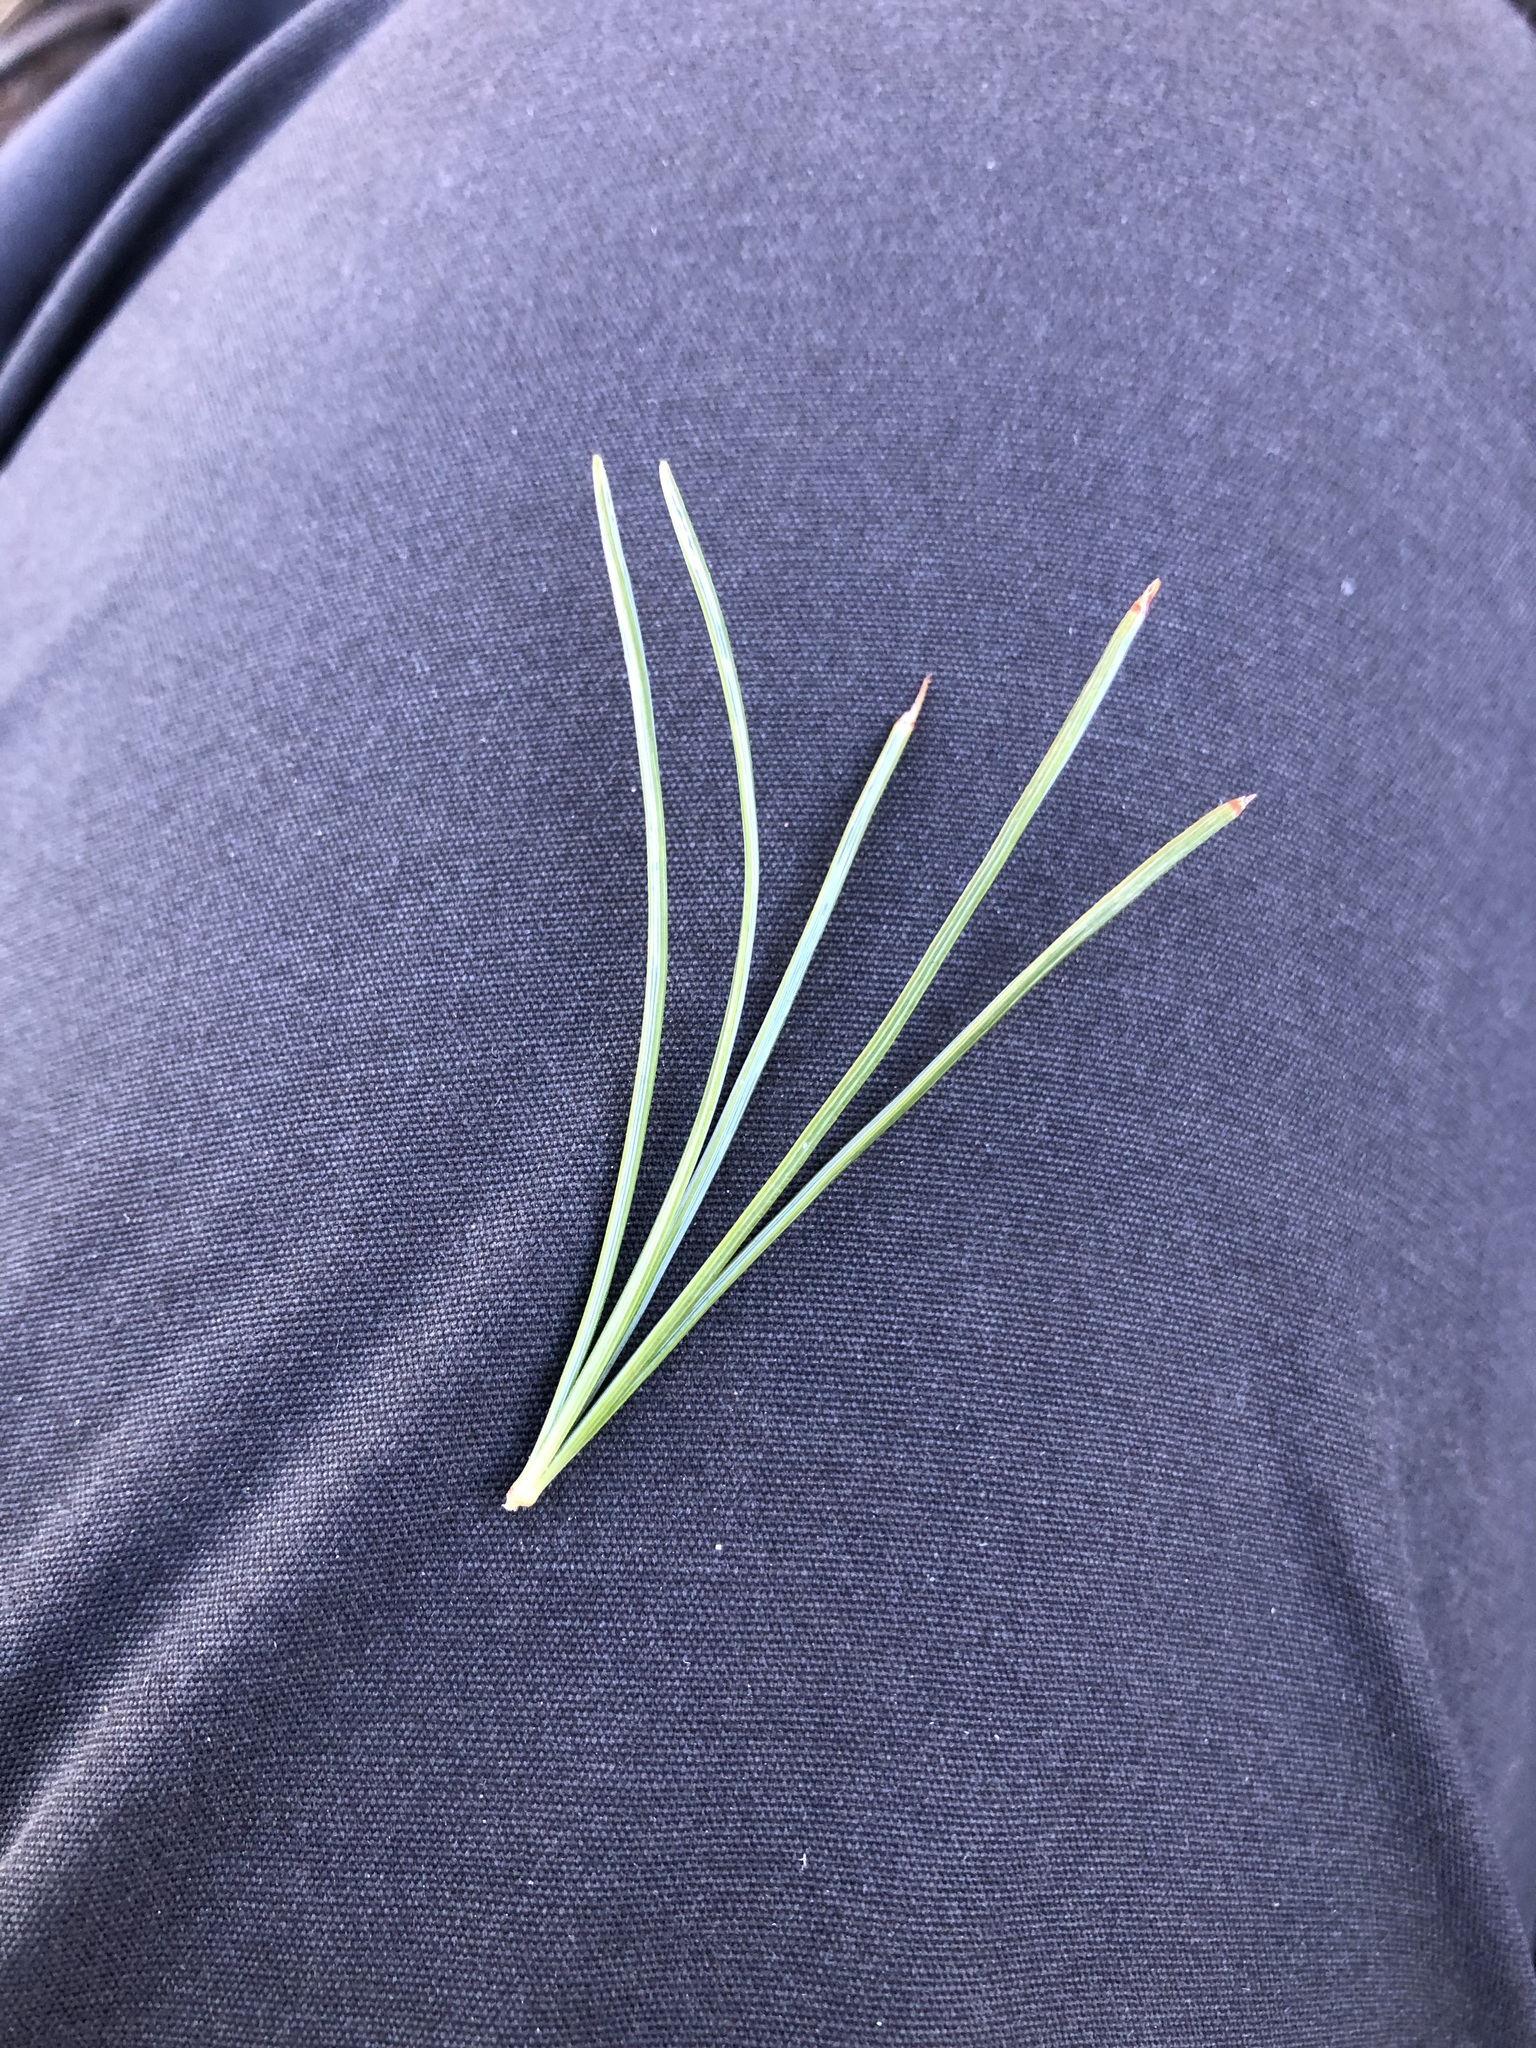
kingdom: Plantae
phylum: Tracheophyta
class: Pinopsida
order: Pinales
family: Pinaceae
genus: Pinus
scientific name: Pinus monticola
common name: Western white pine
